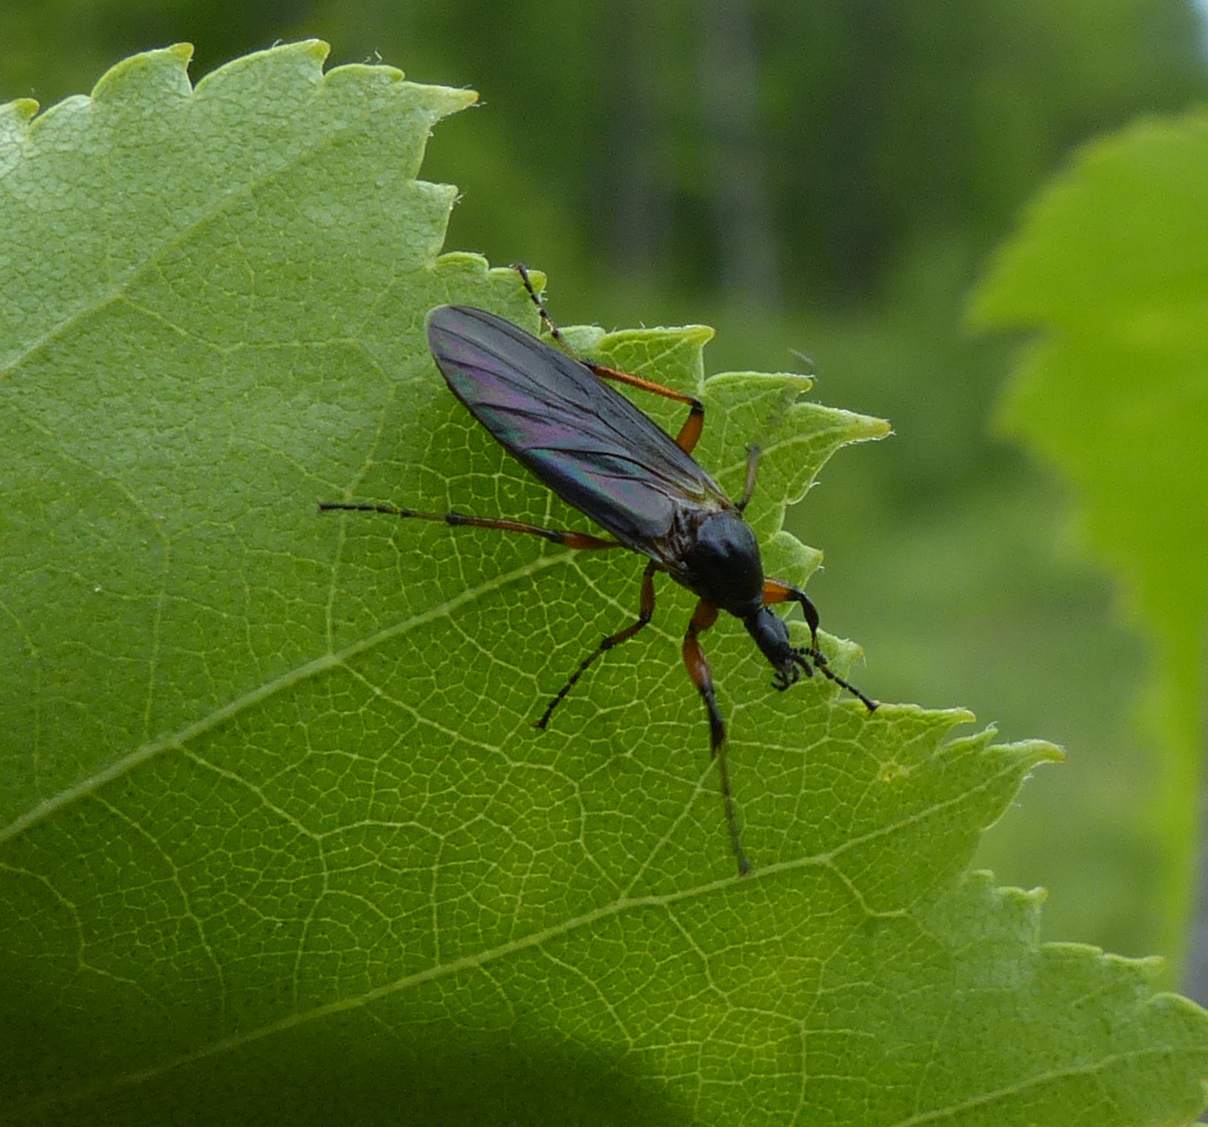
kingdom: Animalia
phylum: Arthropoda
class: Insecta
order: Diptera
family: Bibionidae
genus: Bibio
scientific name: Bibio xanthopus
